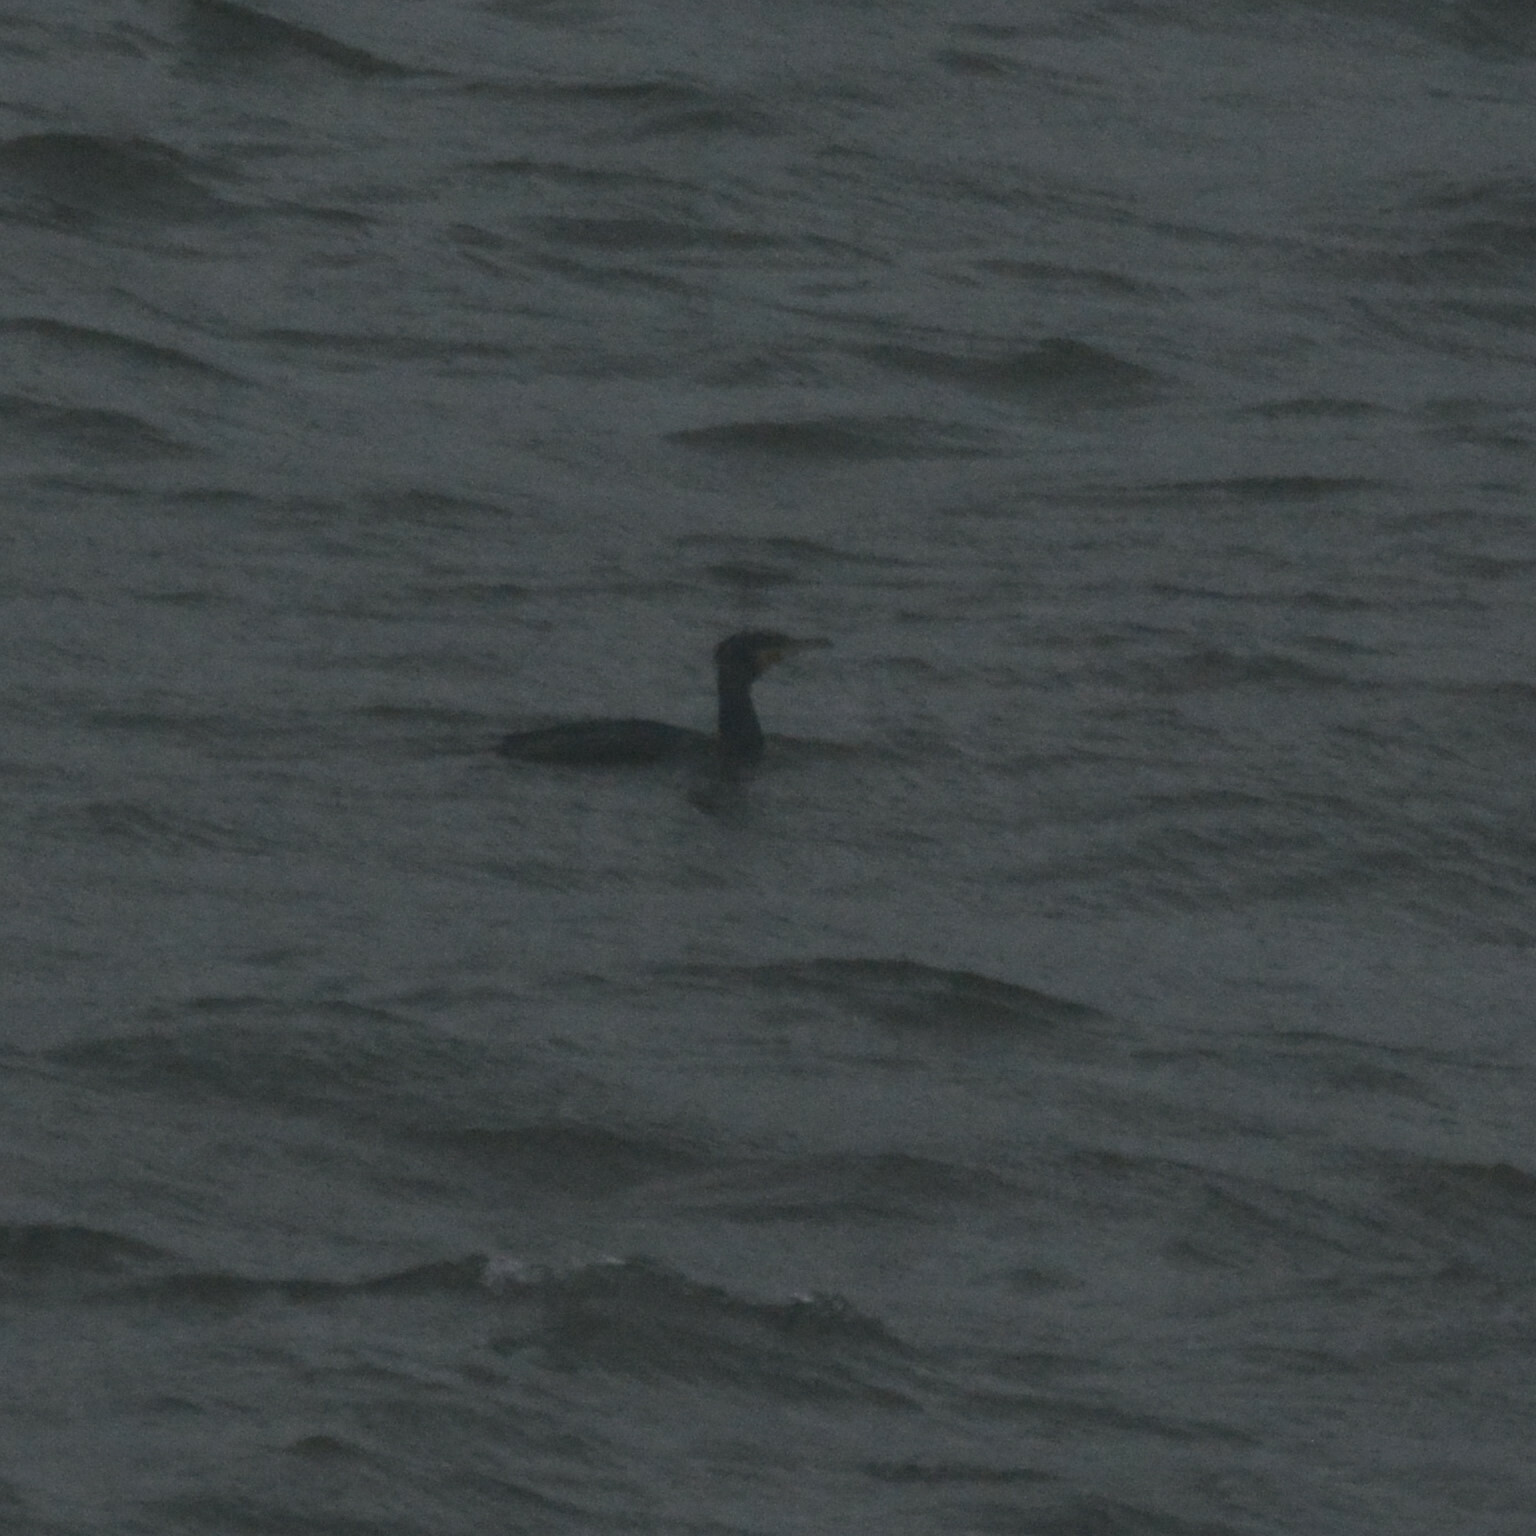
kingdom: Animalia
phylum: Chordata
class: Aves
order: Suliformes
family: Phalacrocoracidae
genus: Phalacrocorax
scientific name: Phalacrocorax carbo
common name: Great cormorant
